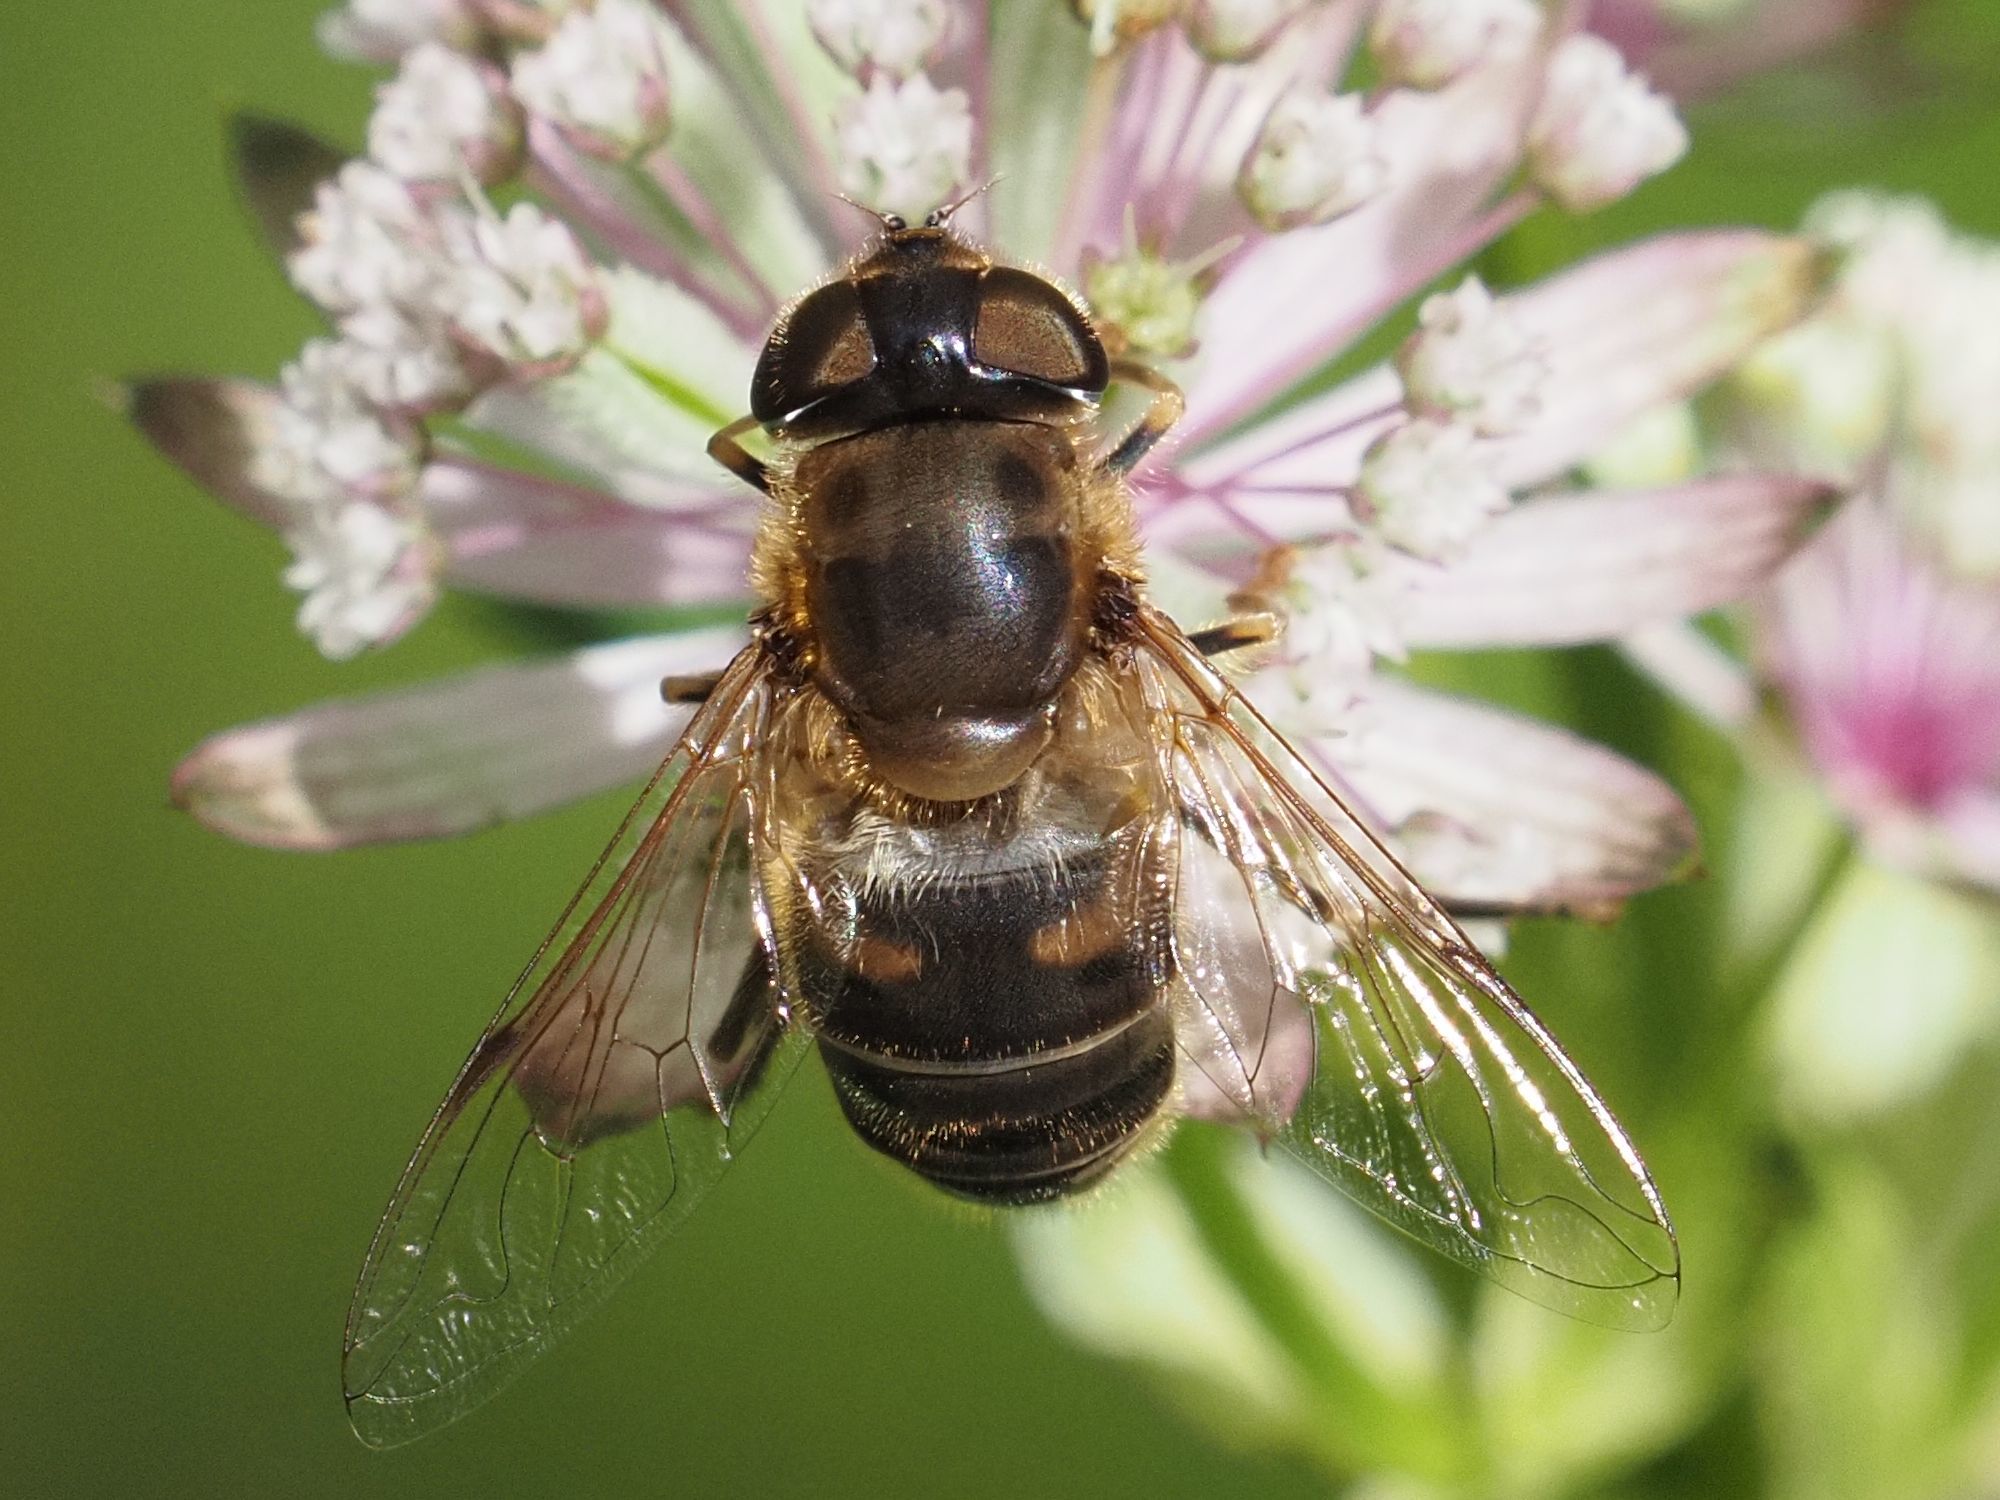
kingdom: Animalia
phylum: Arthropoda
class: Insecta
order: Diptera
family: Syrphidae
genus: Eristalis
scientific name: Eristalis pertinax
